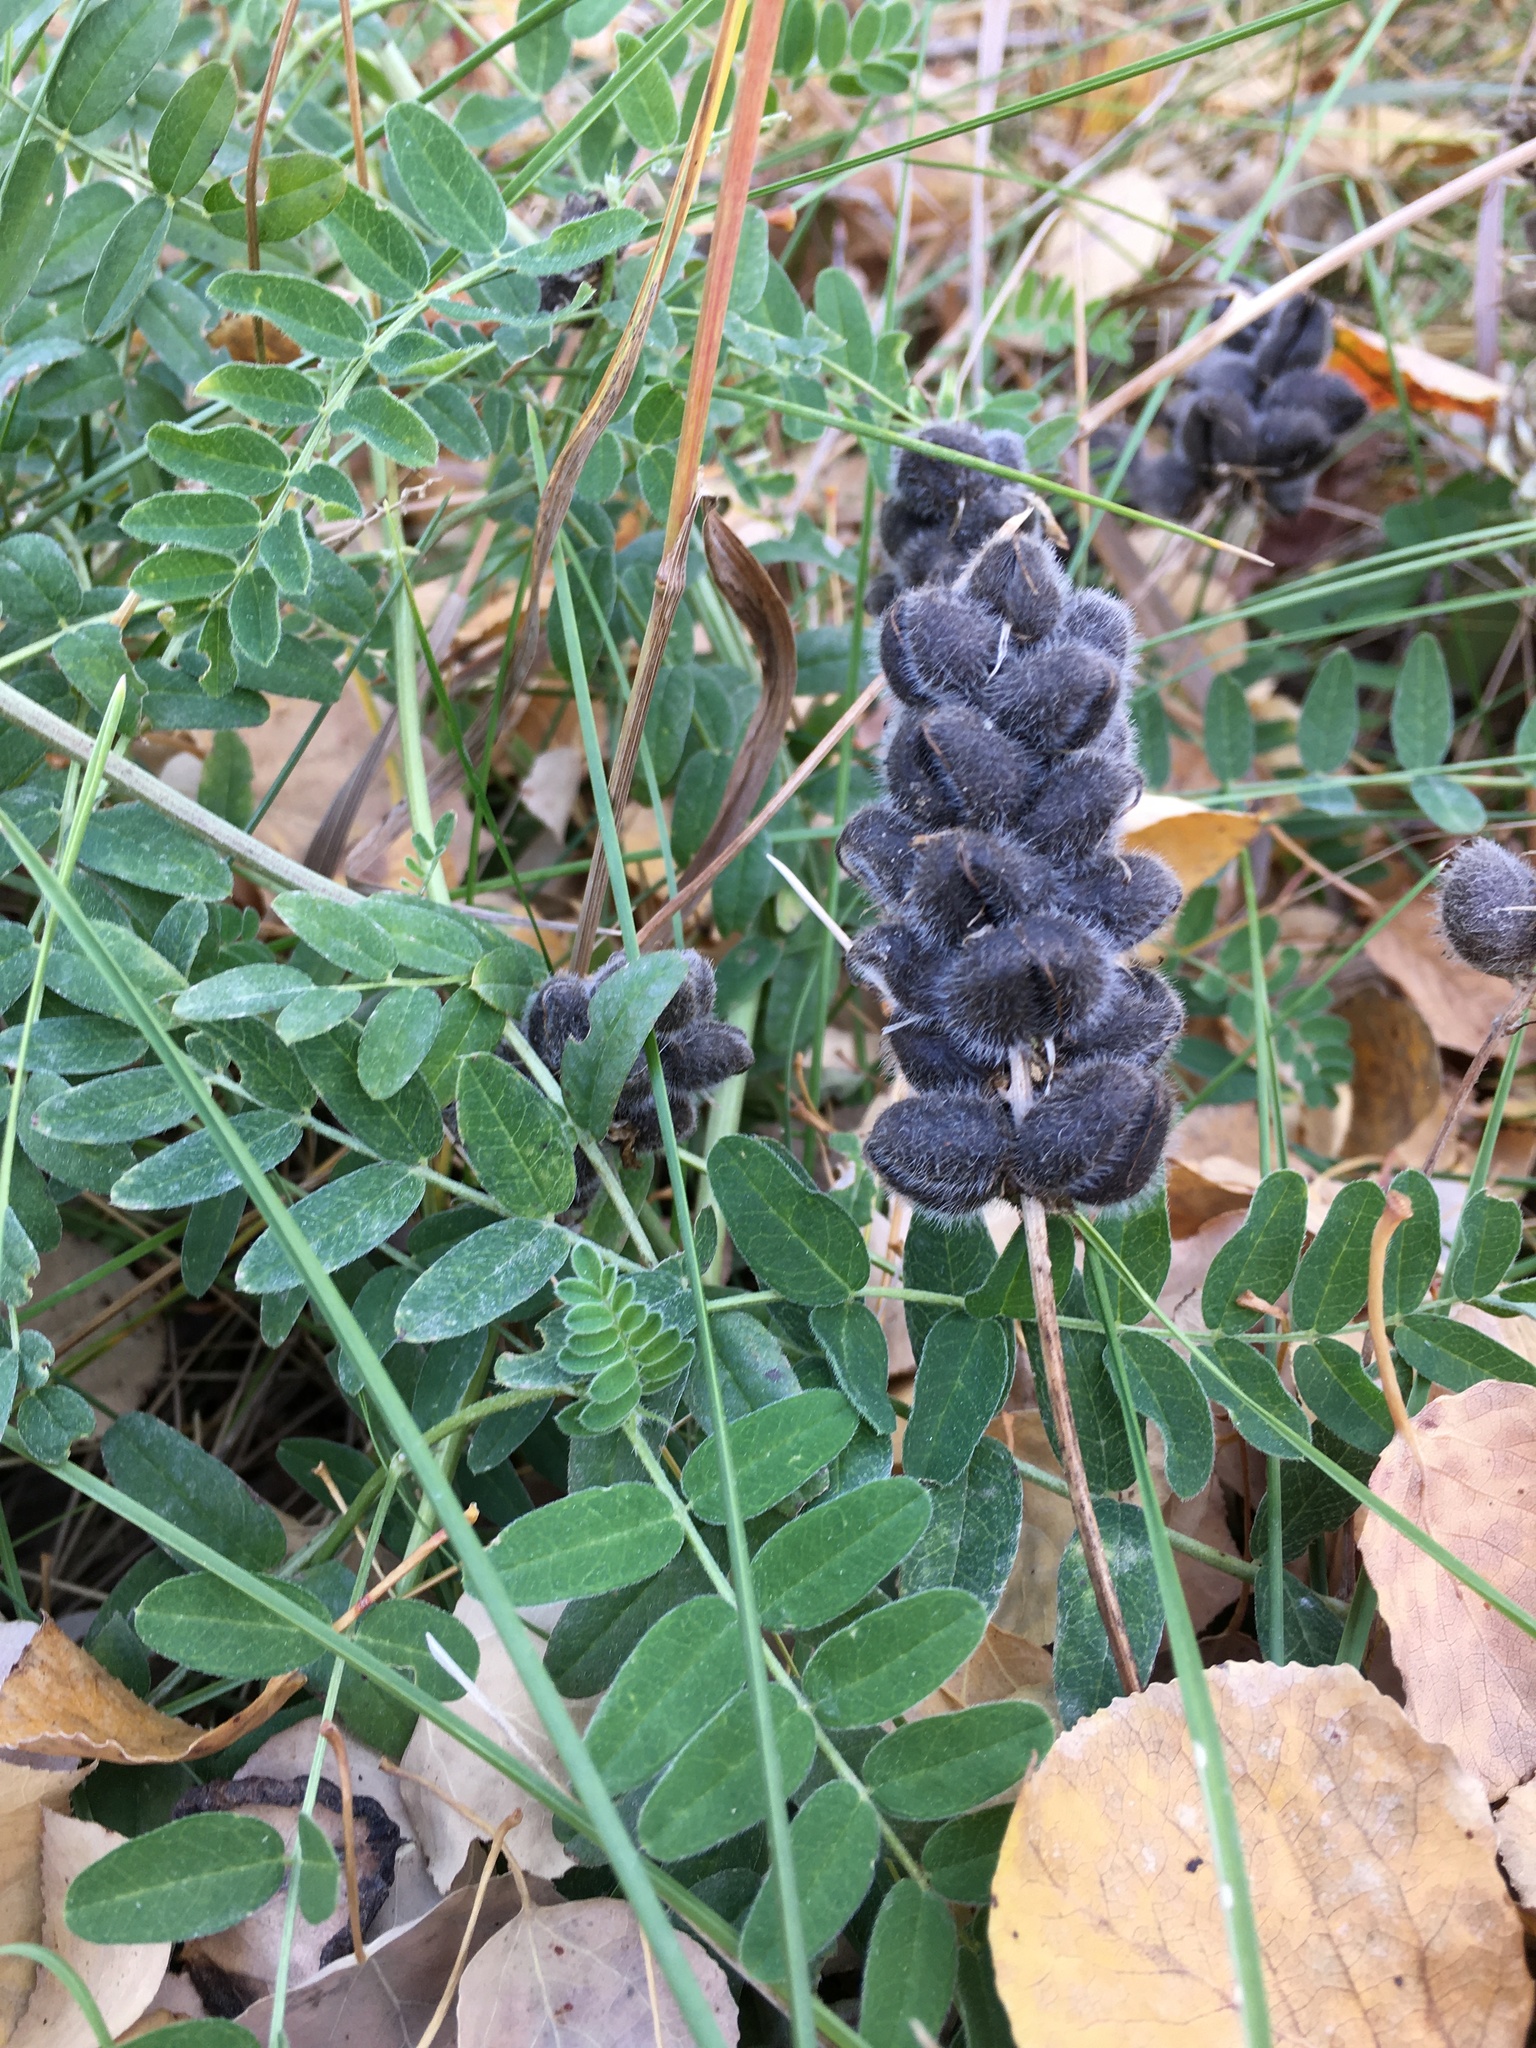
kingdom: Plantae
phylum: Tracheophyta
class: Magnoliopsida
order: Fabales
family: Fabaceae
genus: Astragalus
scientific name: Astragalus cicer
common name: Chick-pea milk-vetch
